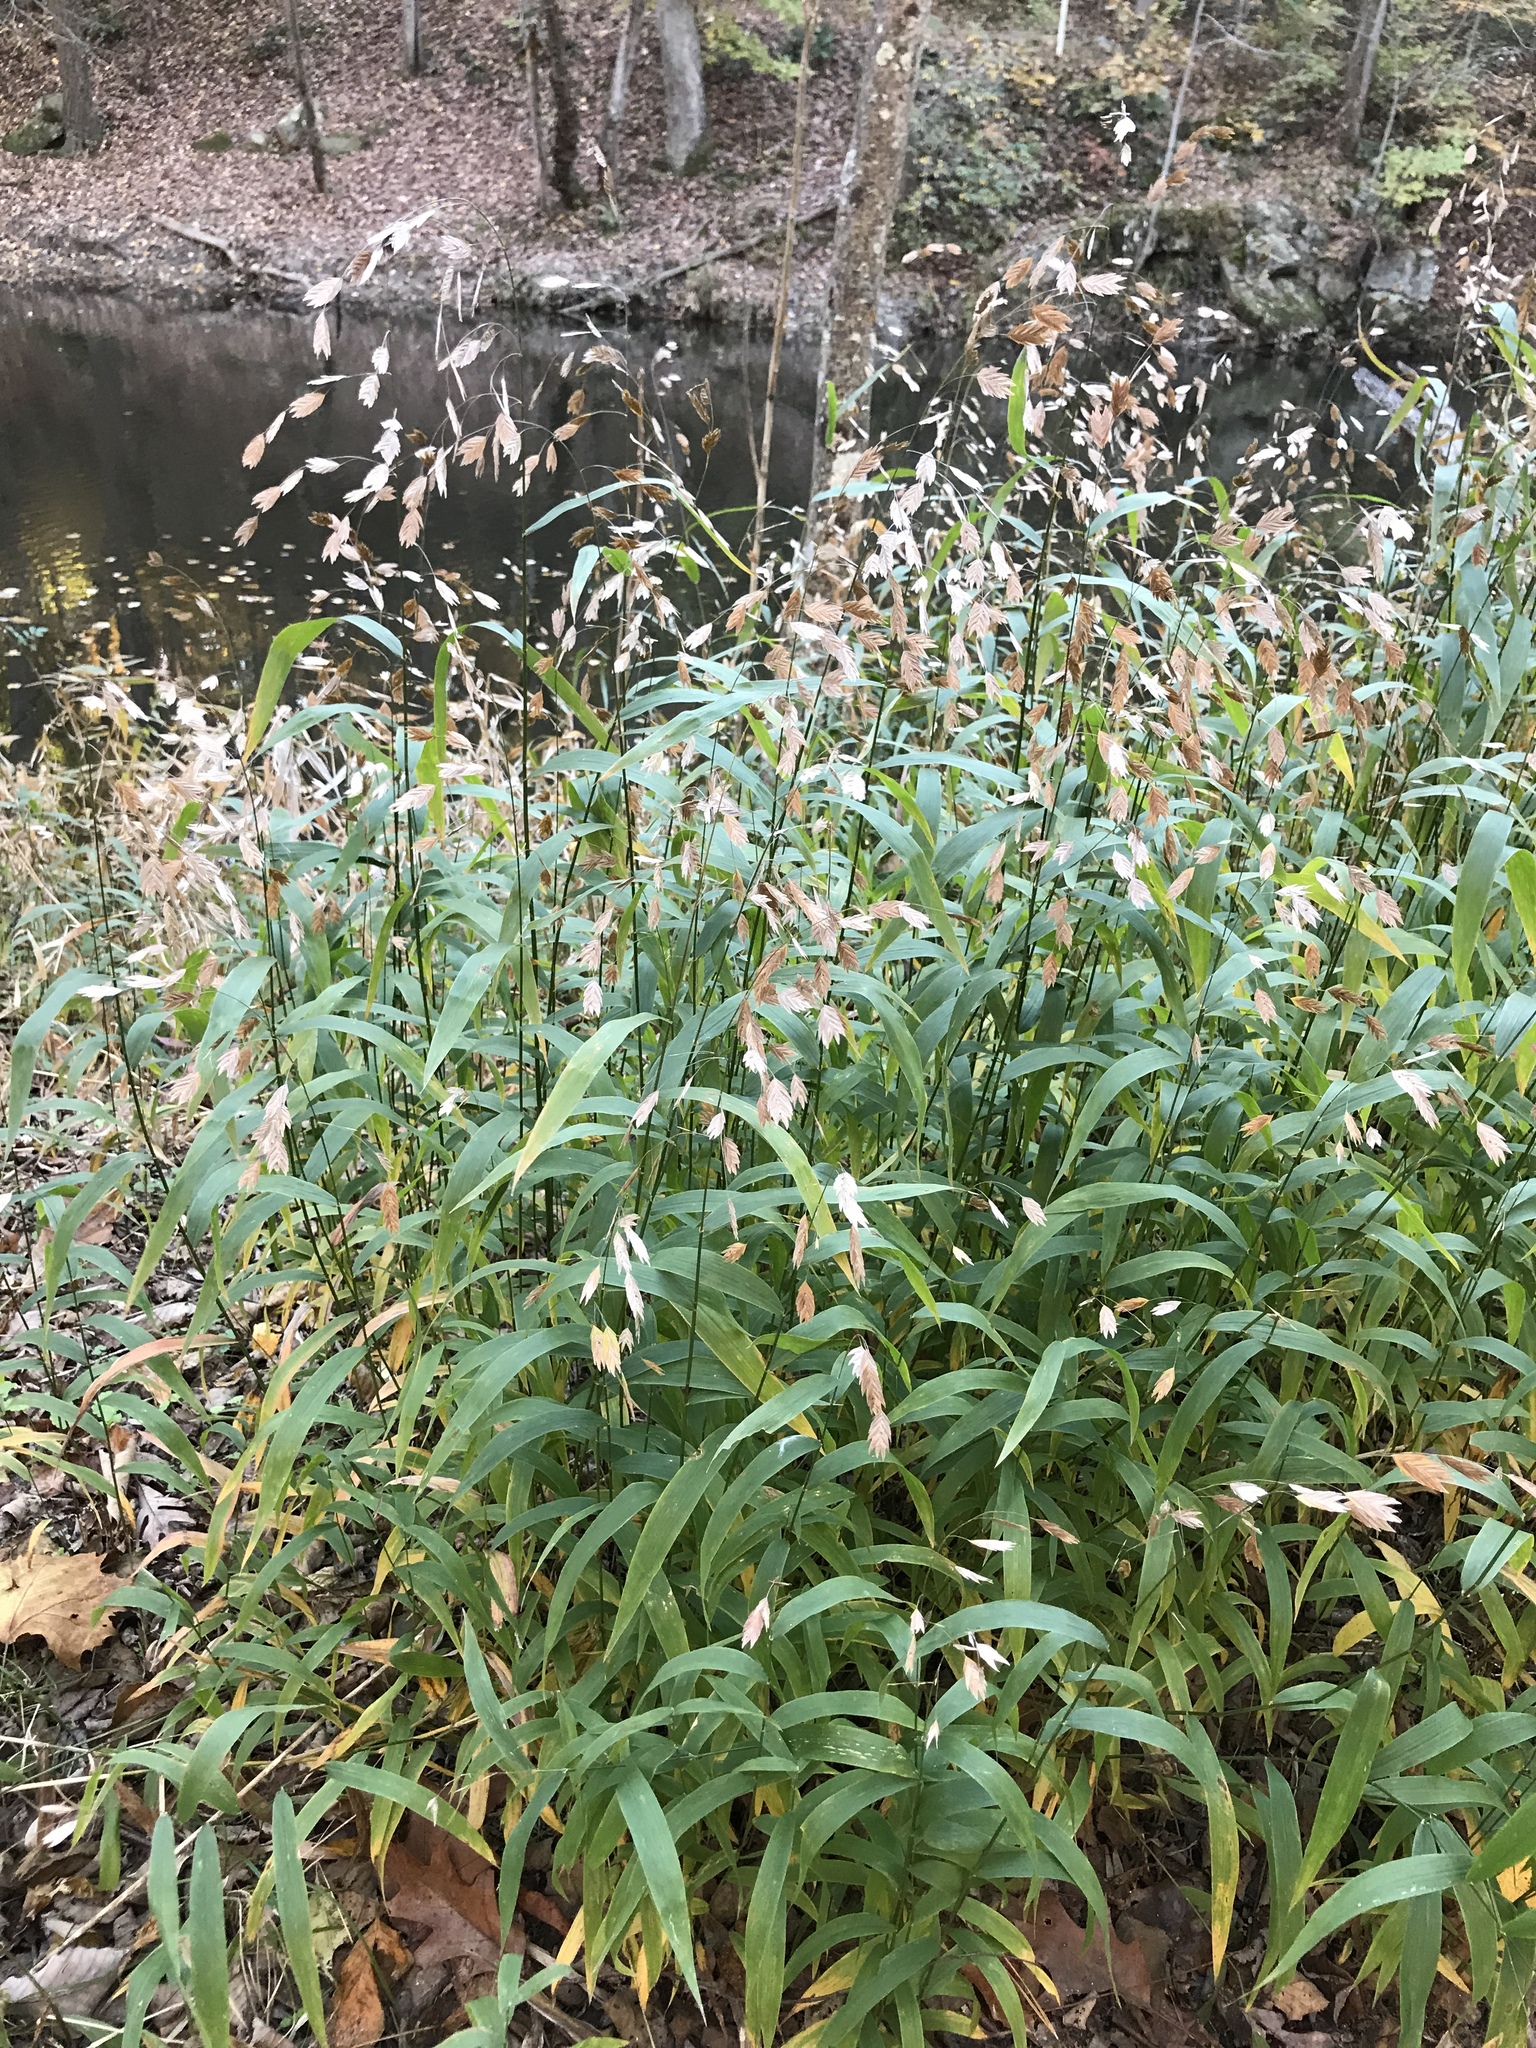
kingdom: Plantae
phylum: Tracheophyta
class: Liliopsida
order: Poales
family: Poaceae
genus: Chasmanthium
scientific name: Chasmanthium latifolium
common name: Broad-leaved chasmanthium
